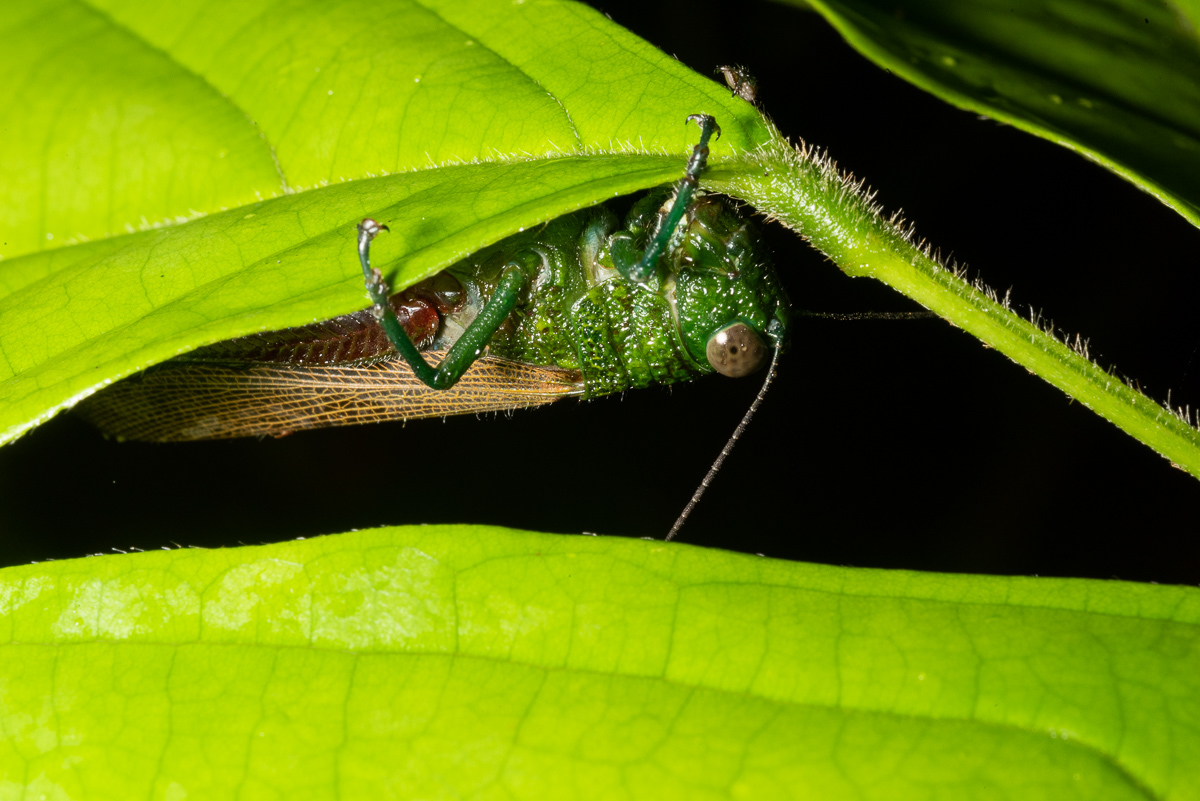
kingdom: Animalia
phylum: Arthropoda
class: Insecta
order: Orthoptera
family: Acrididae
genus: Coscineuta
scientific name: Coscineuta pulchripes
